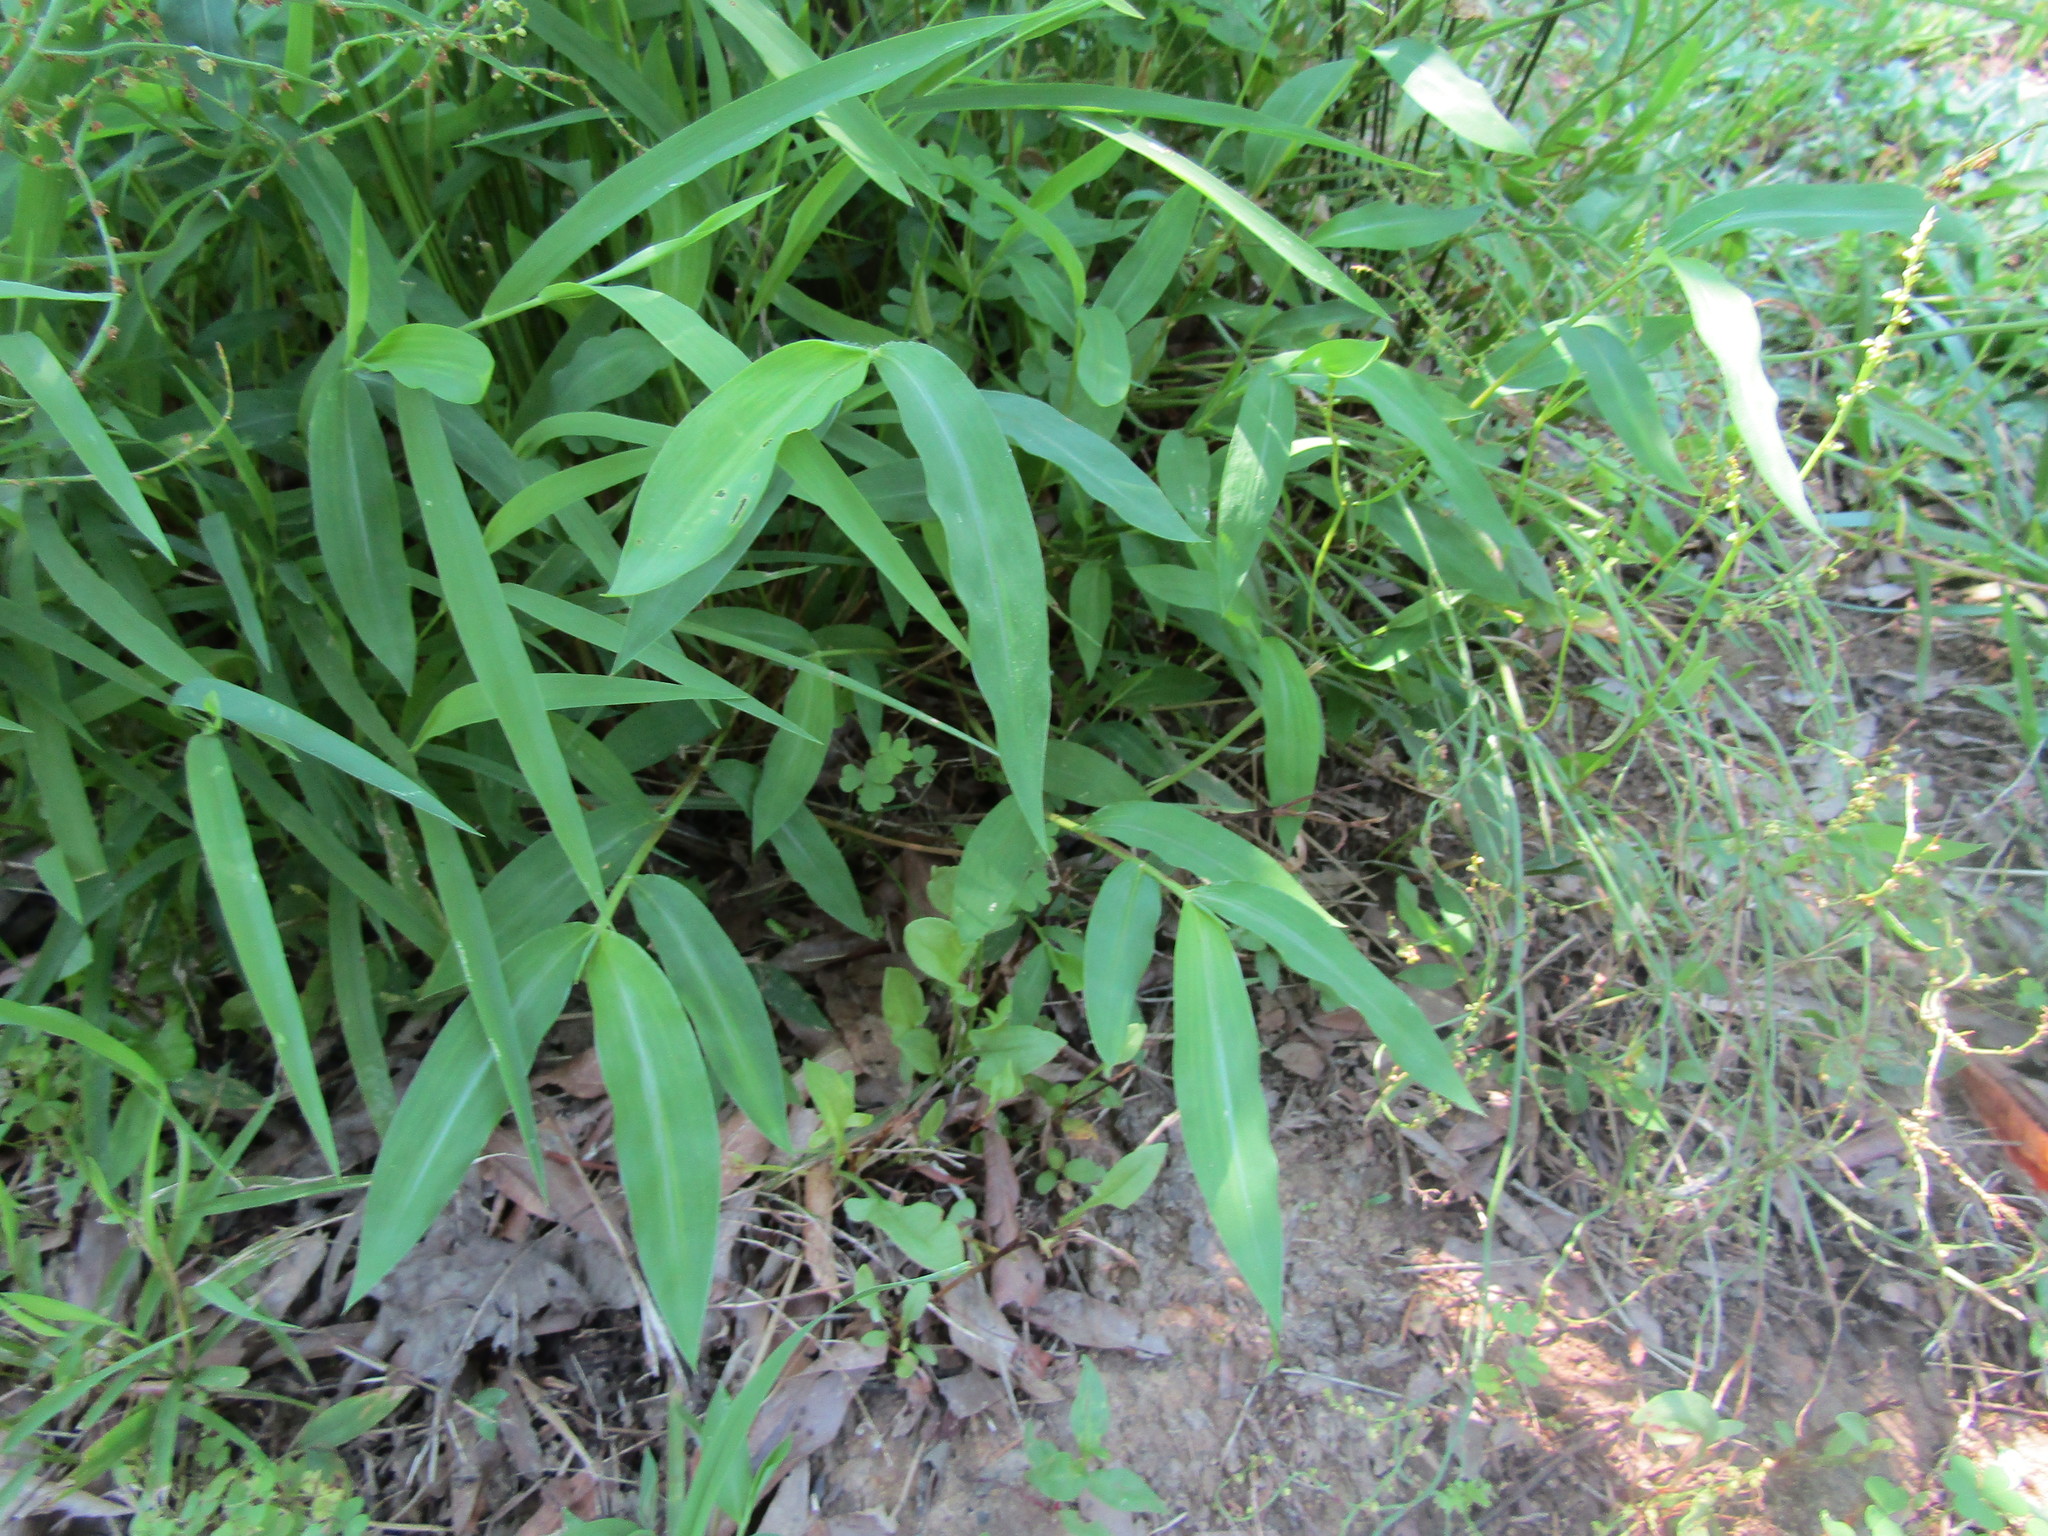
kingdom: Plantae
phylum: Tracheophyta
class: Liliopsida
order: Poales
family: Poaceae
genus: Microstegium
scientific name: Microstegium vimineum
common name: Japanese stiltgrass
